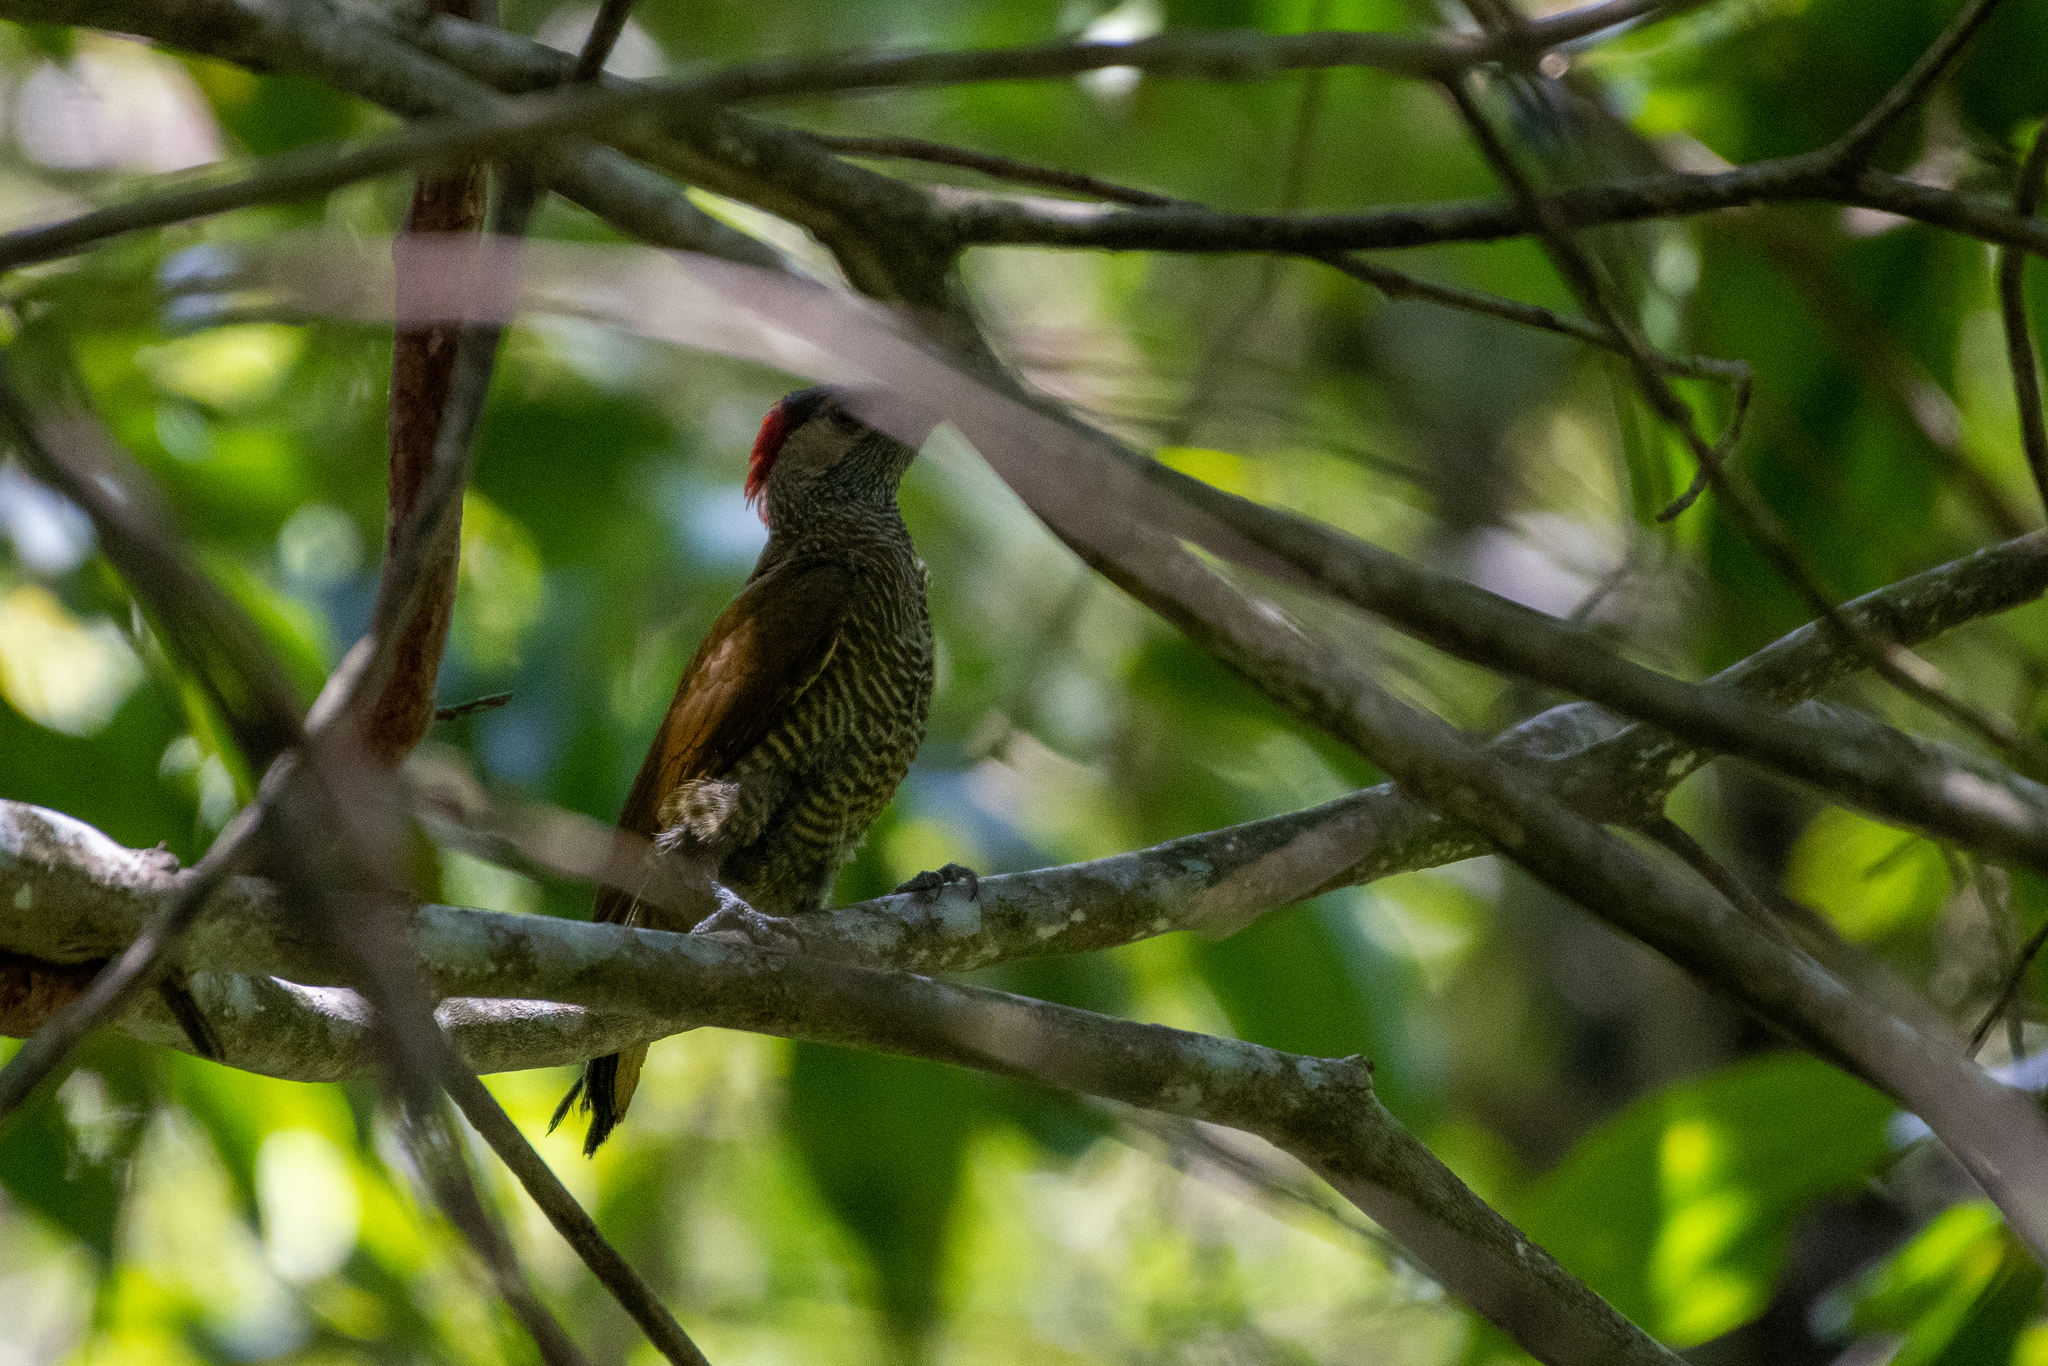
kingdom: Animalia
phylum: Chordata
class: Aves
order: Piciformes
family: Picidae
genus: Colaptes
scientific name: Colaptes rubiginosus
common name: Golden-olive woodpecker
